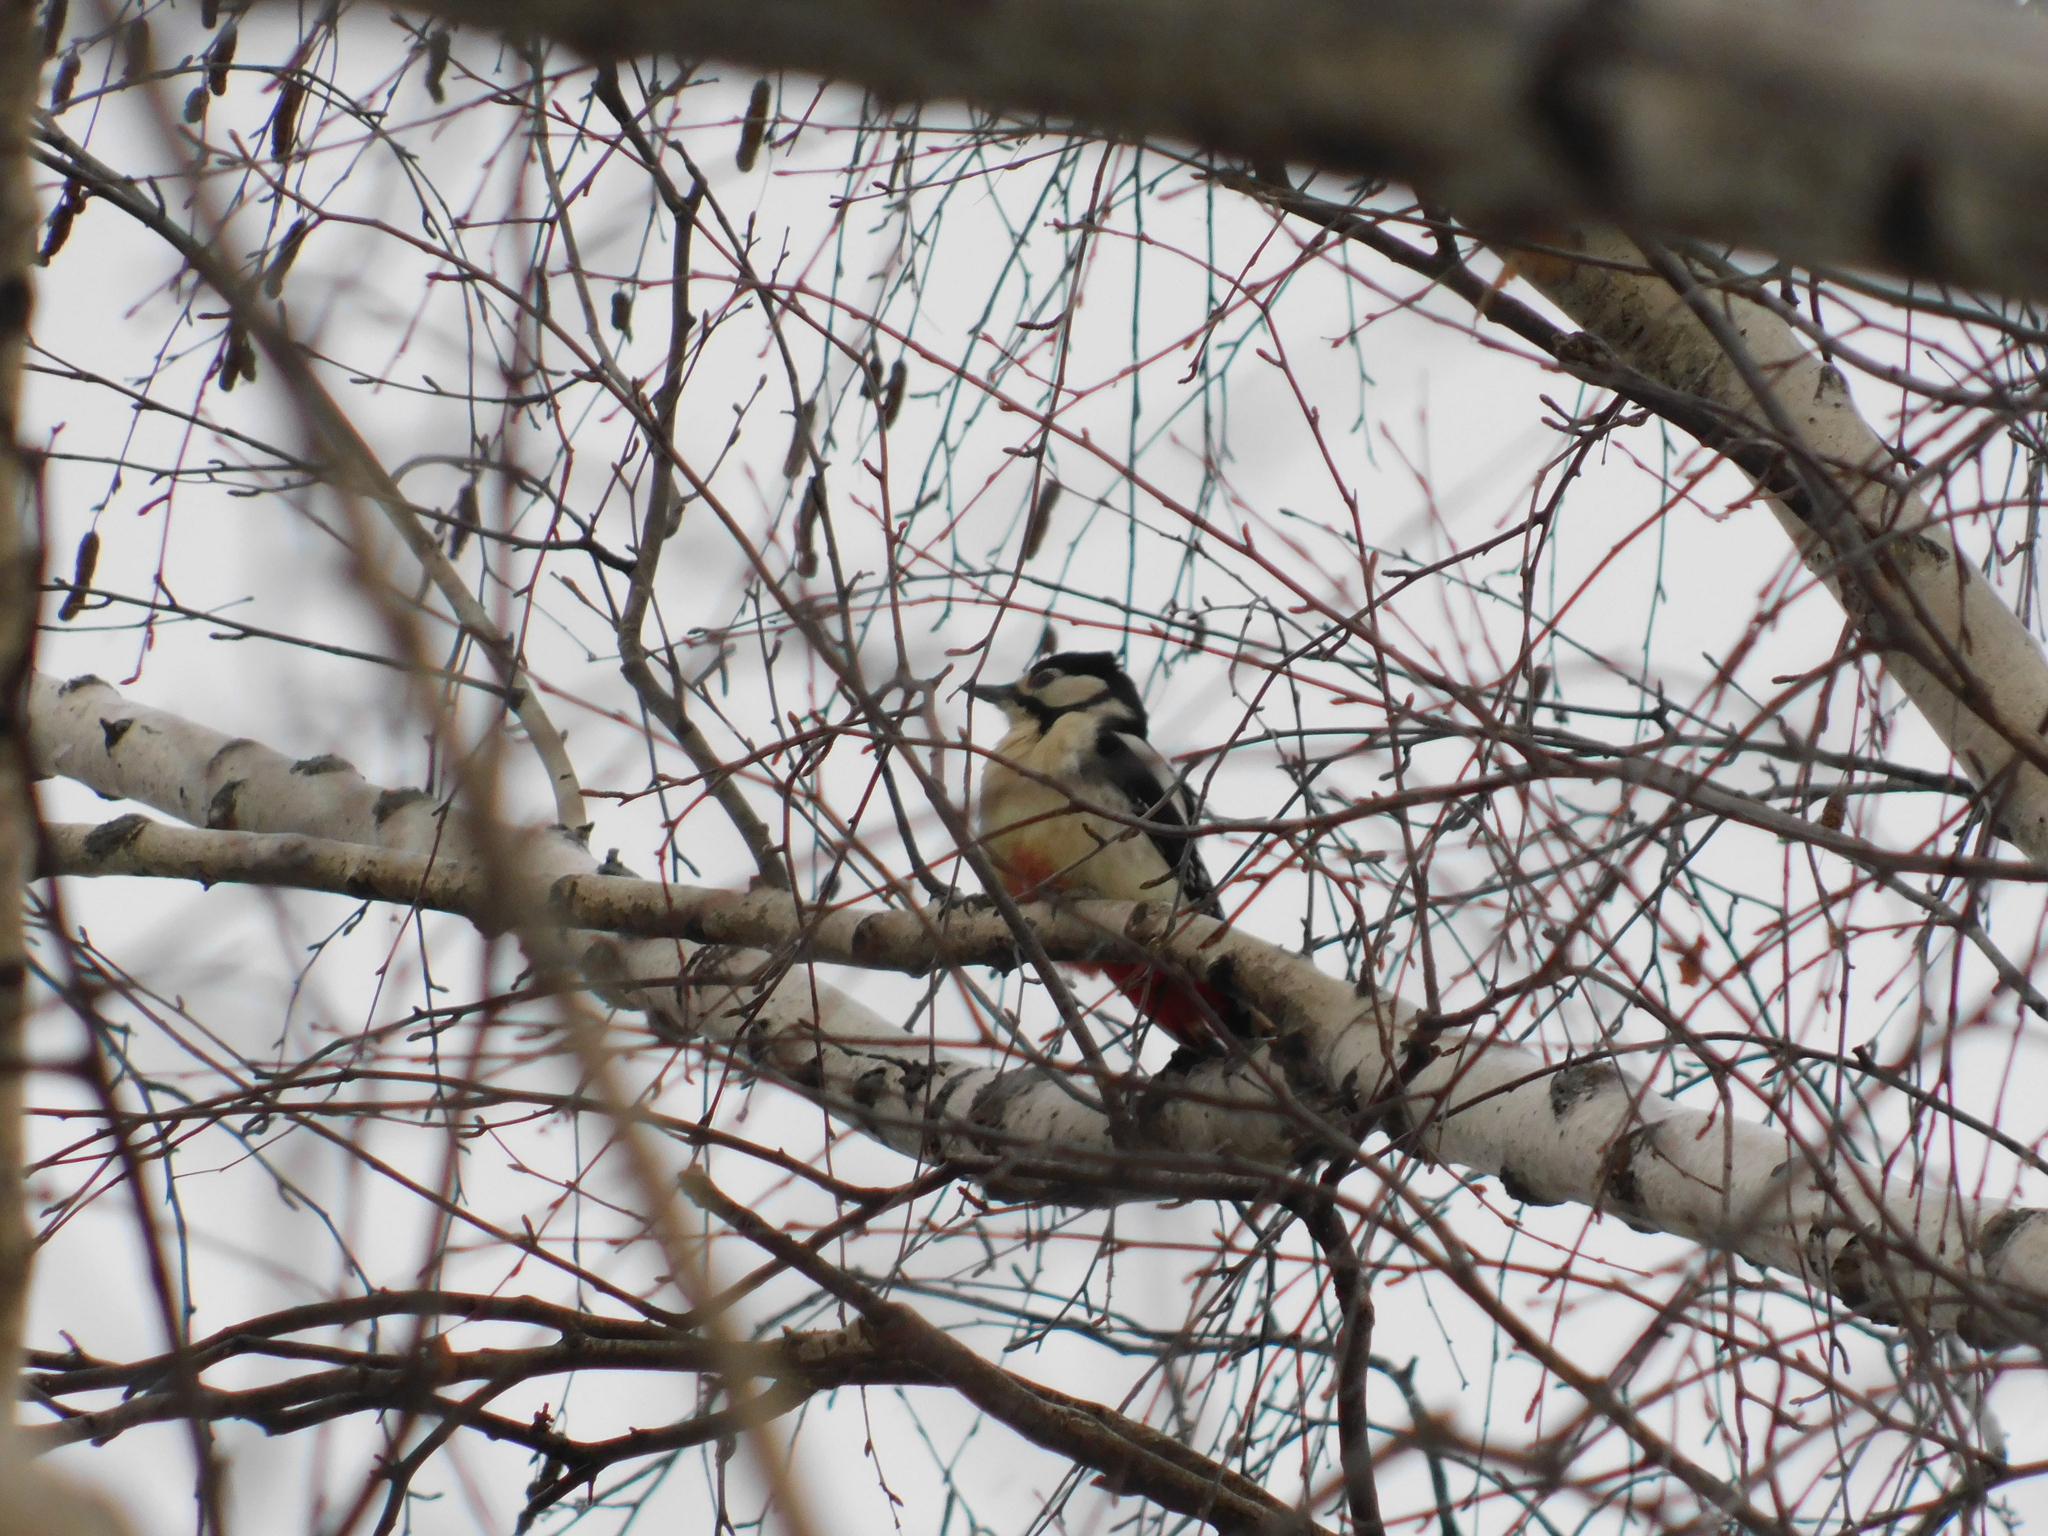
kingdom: Animalia
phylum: Chordata
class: Aves
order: Piciformes
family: Picidae
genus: Dendrocopos
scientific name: Dendrocopos major
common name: Great spotted woodpecker
